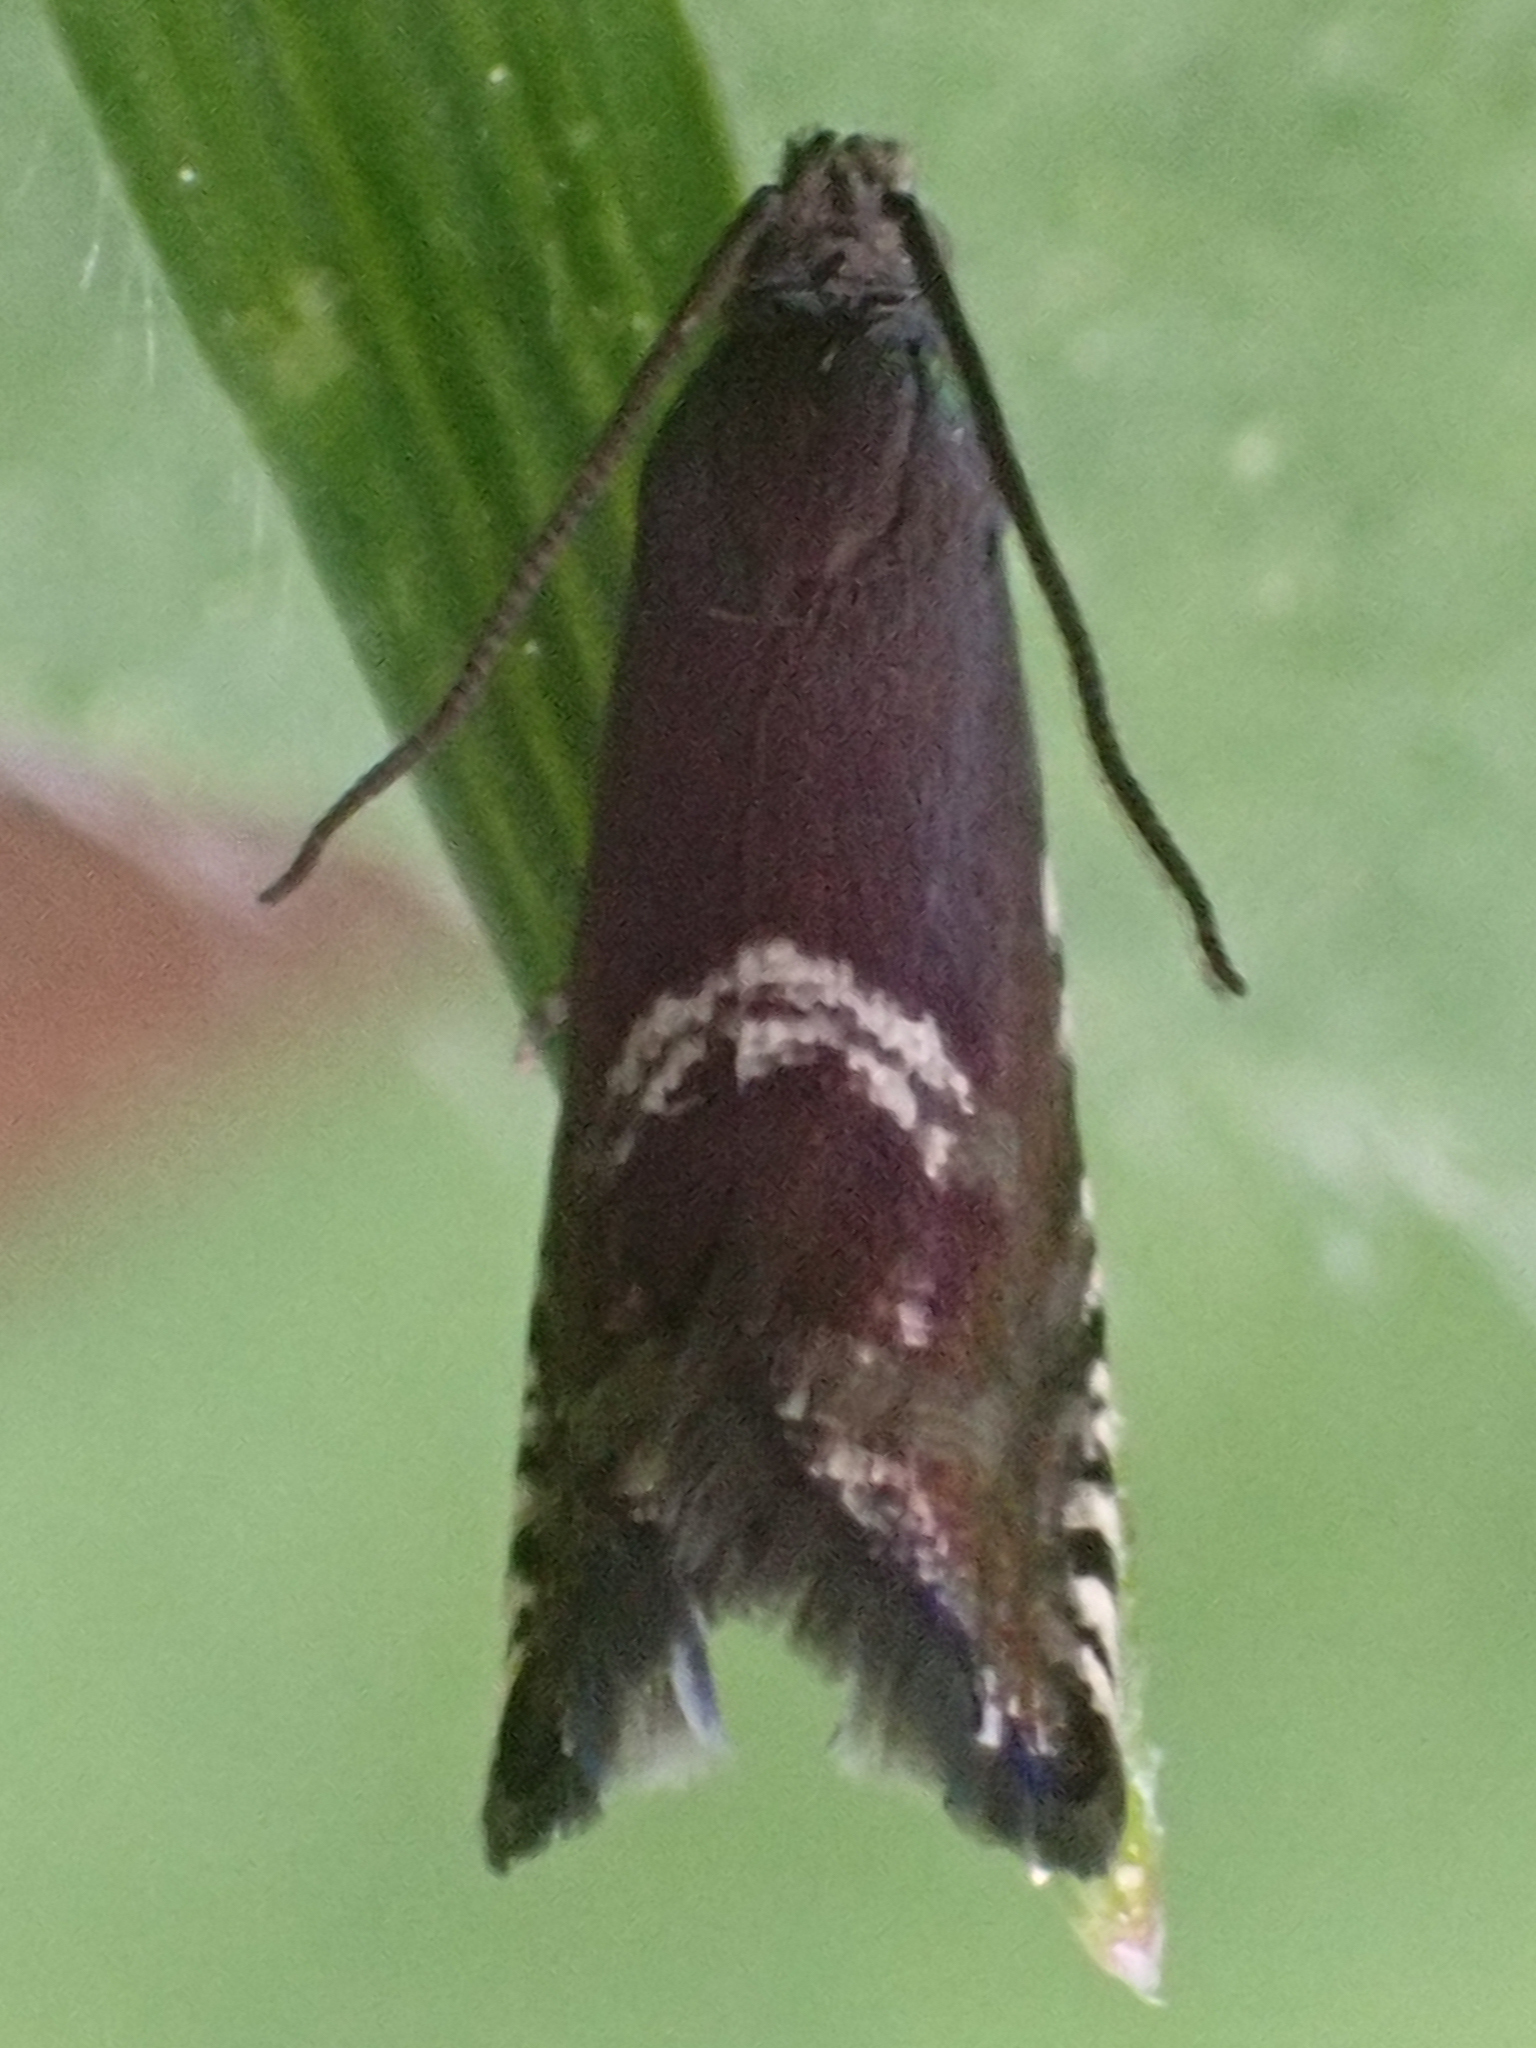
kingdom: Animalia
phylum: Arthropoda
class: Insecta
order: Lepidoptera
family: Tortricidae
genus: Grapholita
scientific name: Grapholita lana
